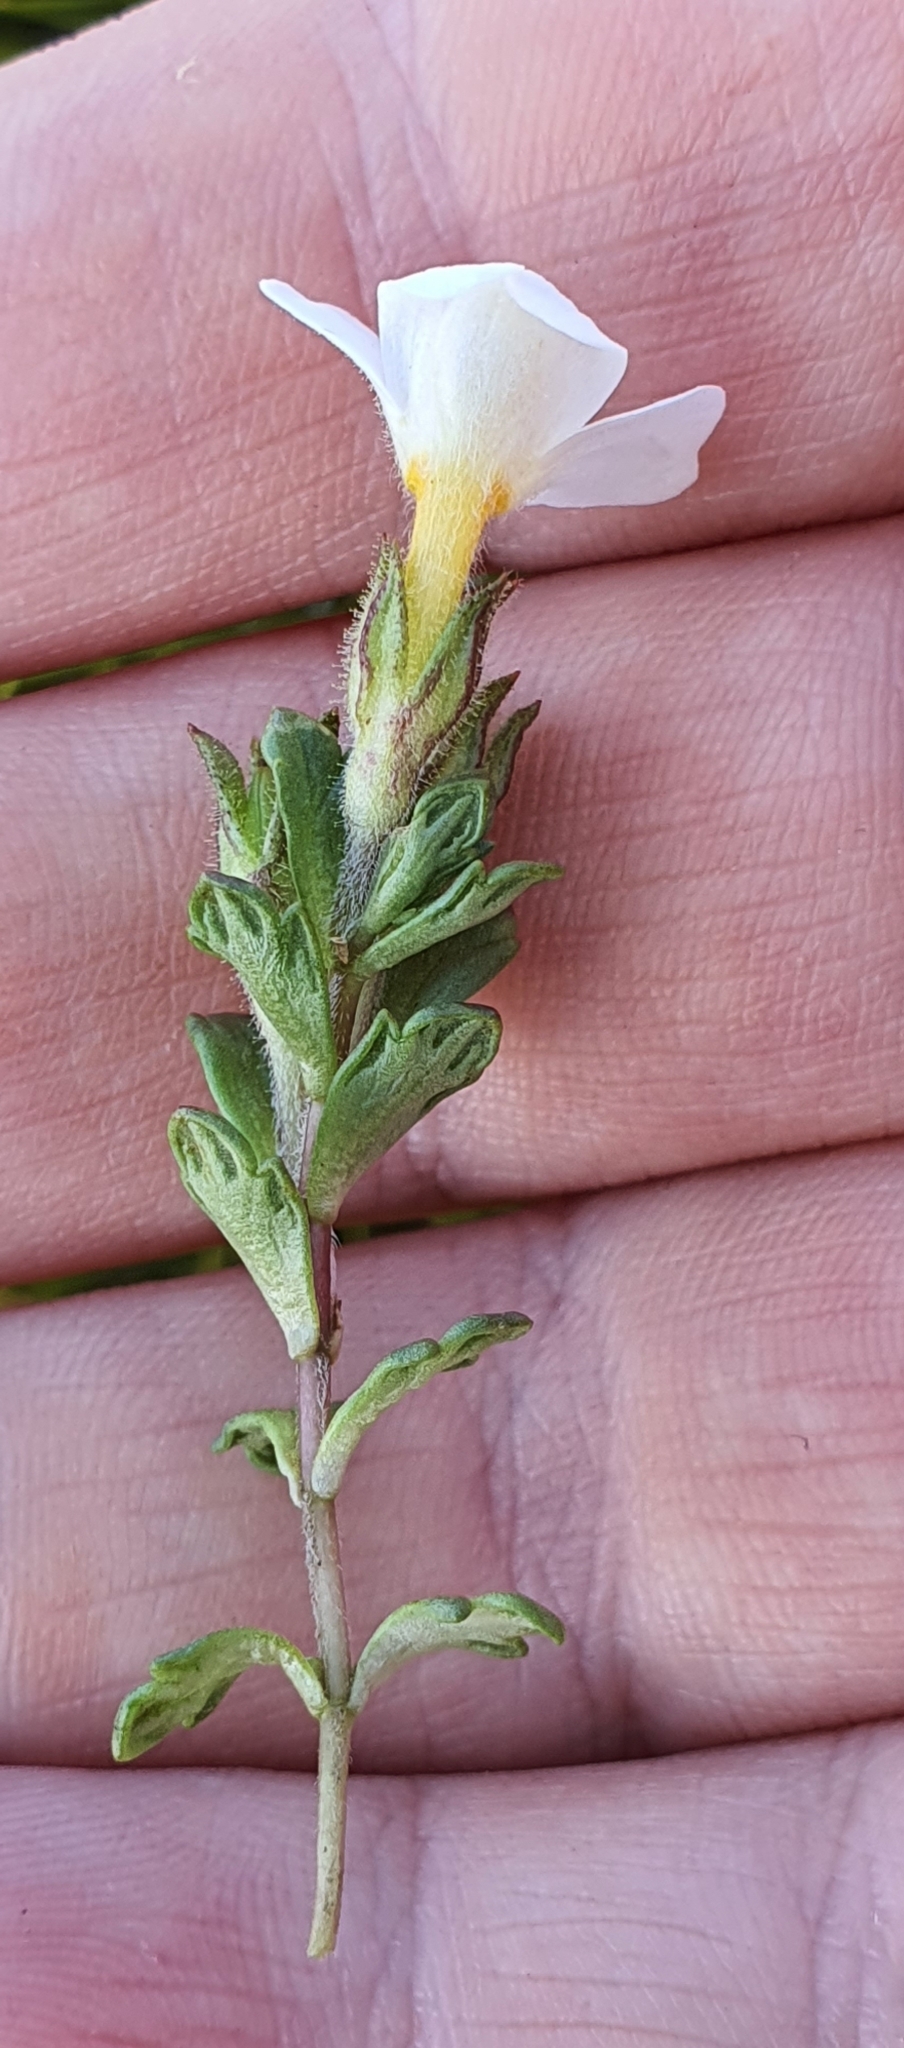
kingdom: Plantae
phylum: Tracheophyta
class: Magnoliopsida
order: Lamiales
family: Orobanchaceae
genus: Euphrasia
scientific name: Euphrasia petriei
